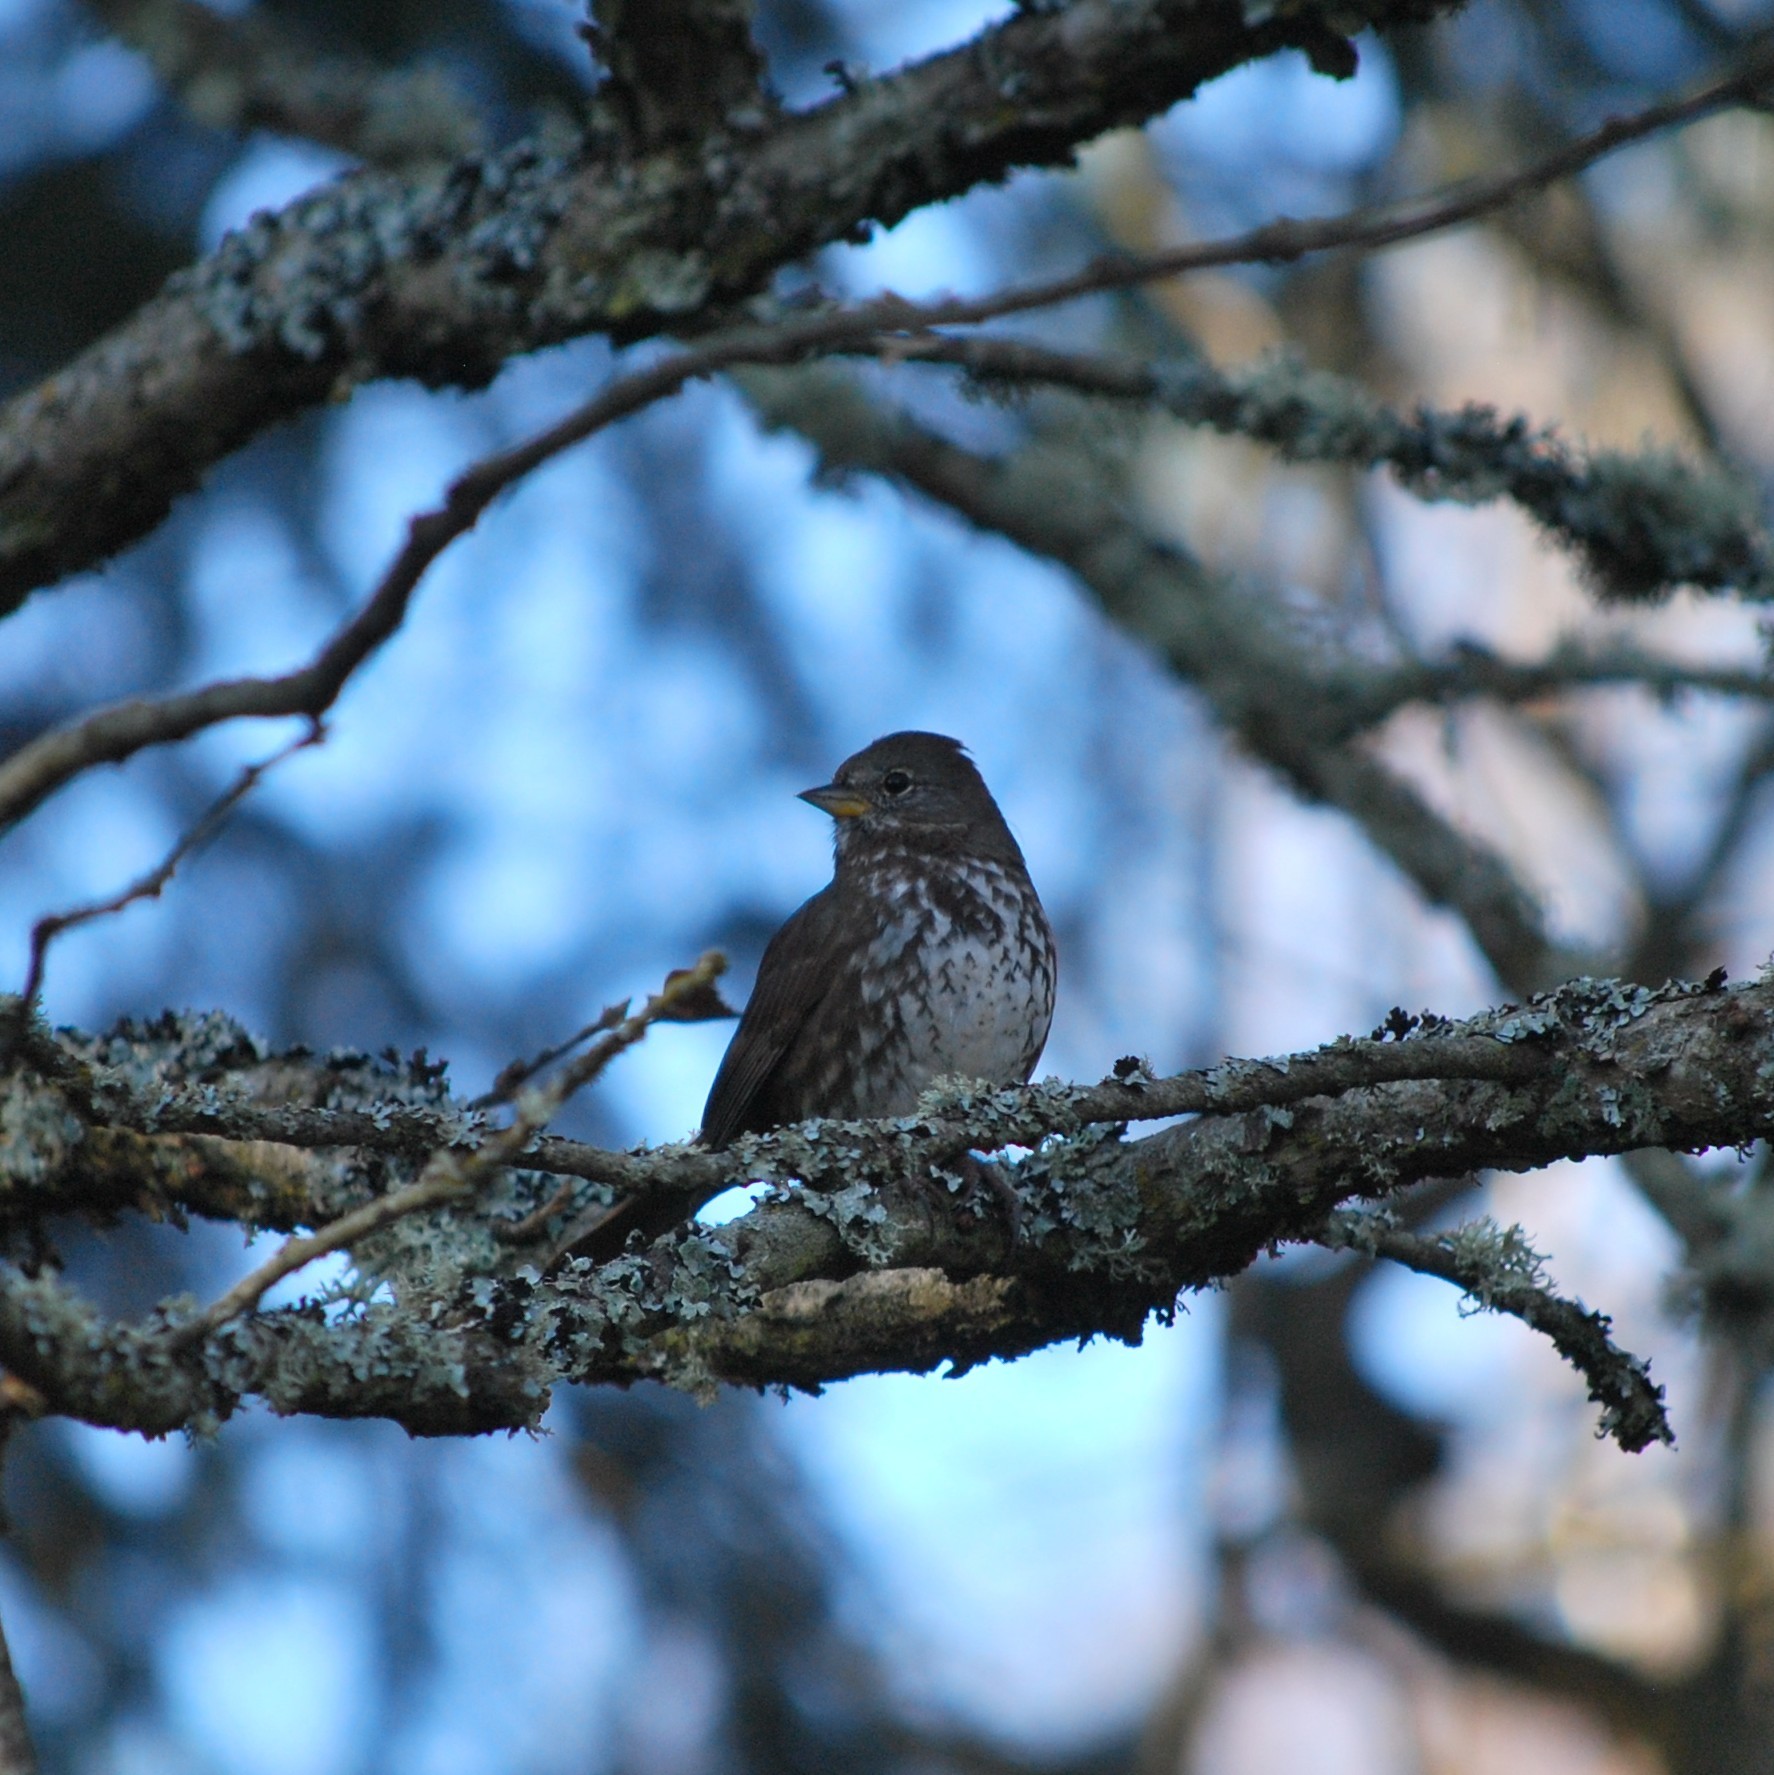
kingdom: Animalia
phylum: Chordata
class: Aves
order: Passeriformes
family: Passerellidae
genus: Passerella
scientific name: Passerella iliaca
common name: Fox sparrow
